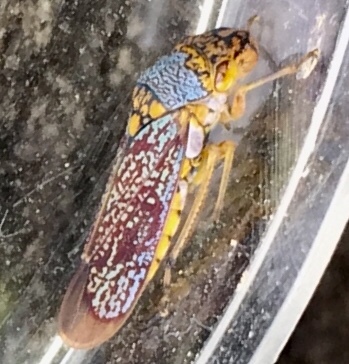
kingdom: Animalia
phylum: Arthropoda
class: Insecta
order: Hemiptera
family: Cicadellidae
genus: Oncometopia
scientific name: Oncometopia orbona
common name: Broad-headed sharpshooter
